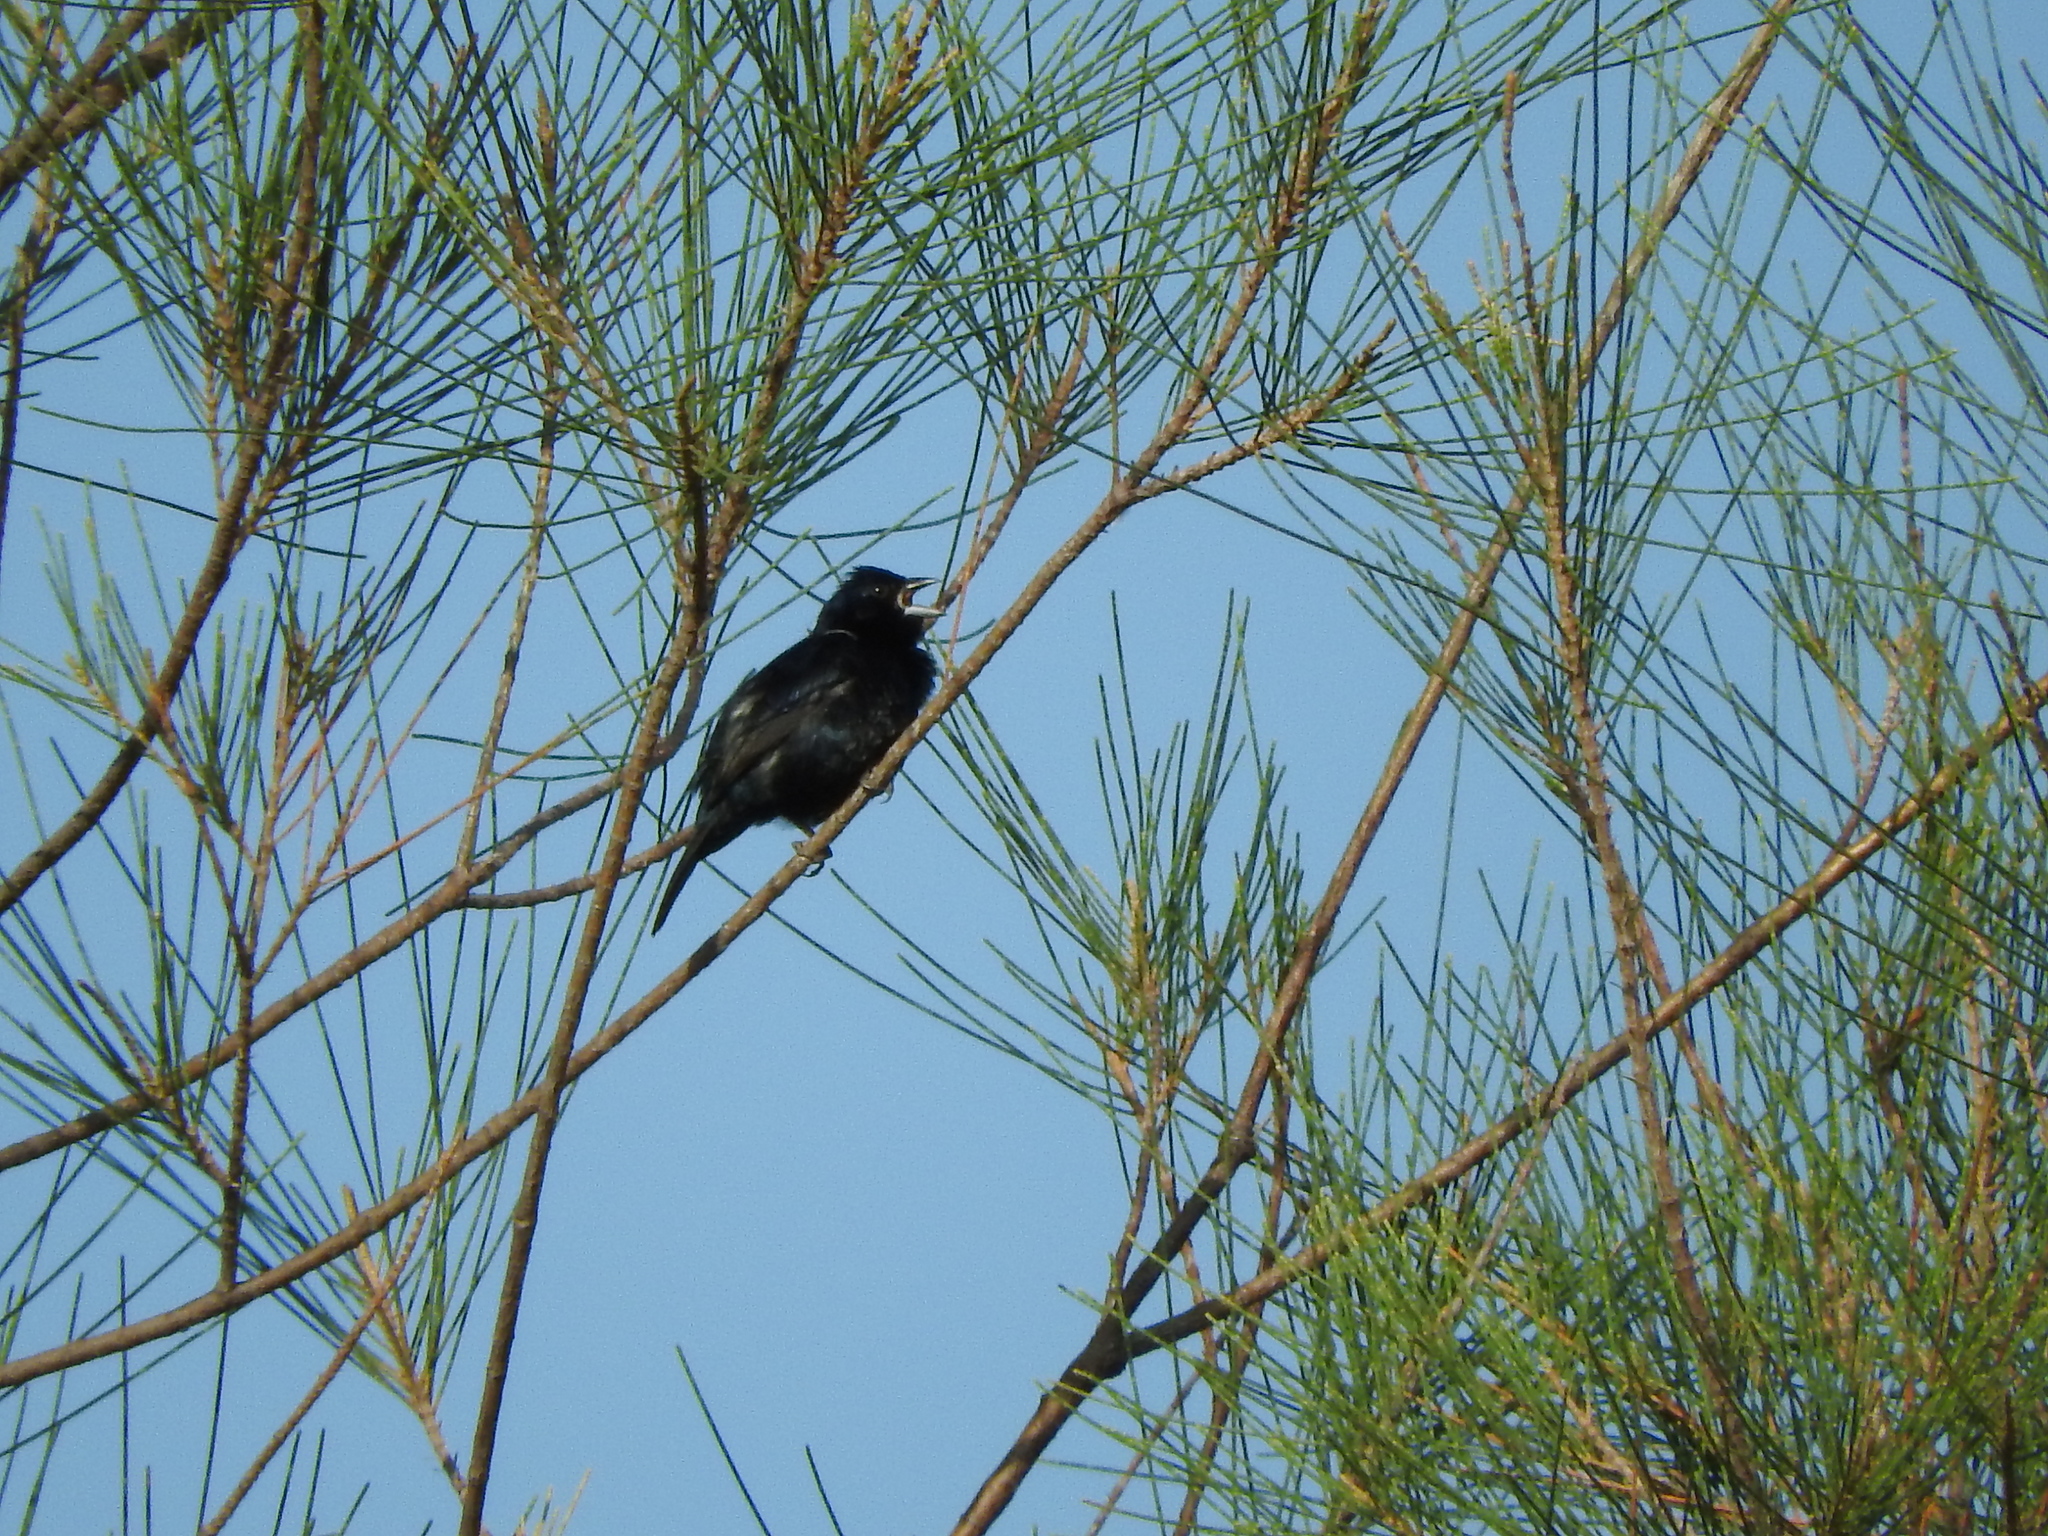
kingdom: Animalia
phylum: Chordata
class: Aves
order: Passeriformes
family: Thraupidae
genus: Volatinia
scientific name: Volatinia jacarina
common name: Blue-black grassquit
